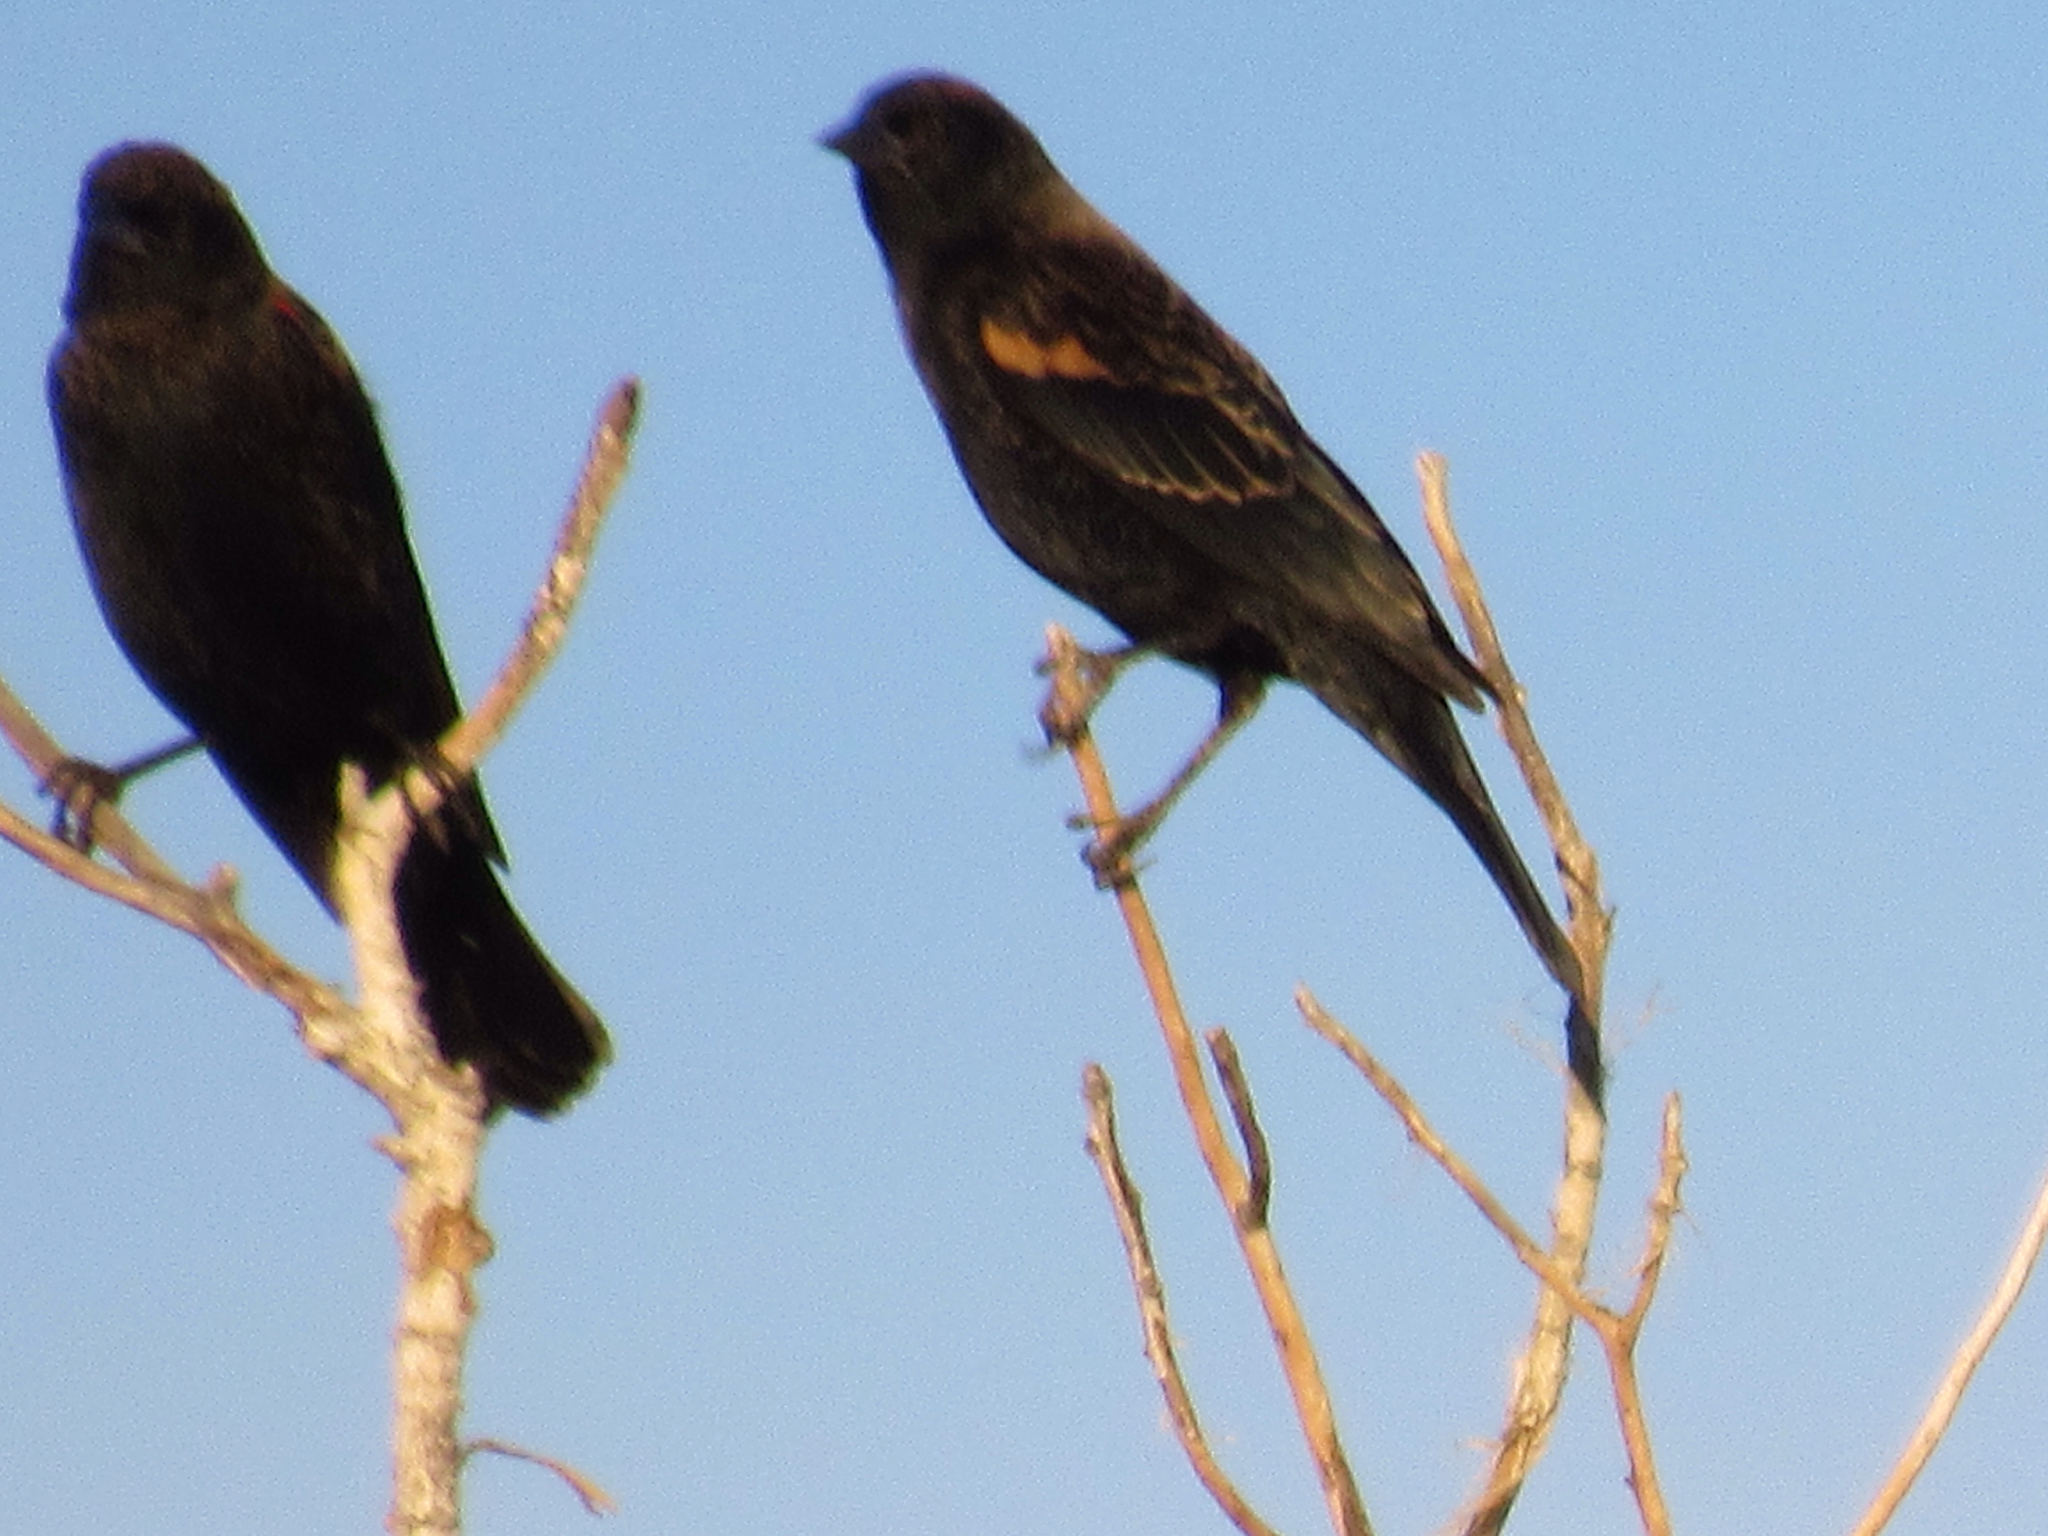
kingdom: Animalia
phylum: Chordata
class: Aves
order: Passeriformes
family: Icteridae
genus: Agelaius
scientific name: Agelaius phoeniceus
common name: Red-winged blackbird
